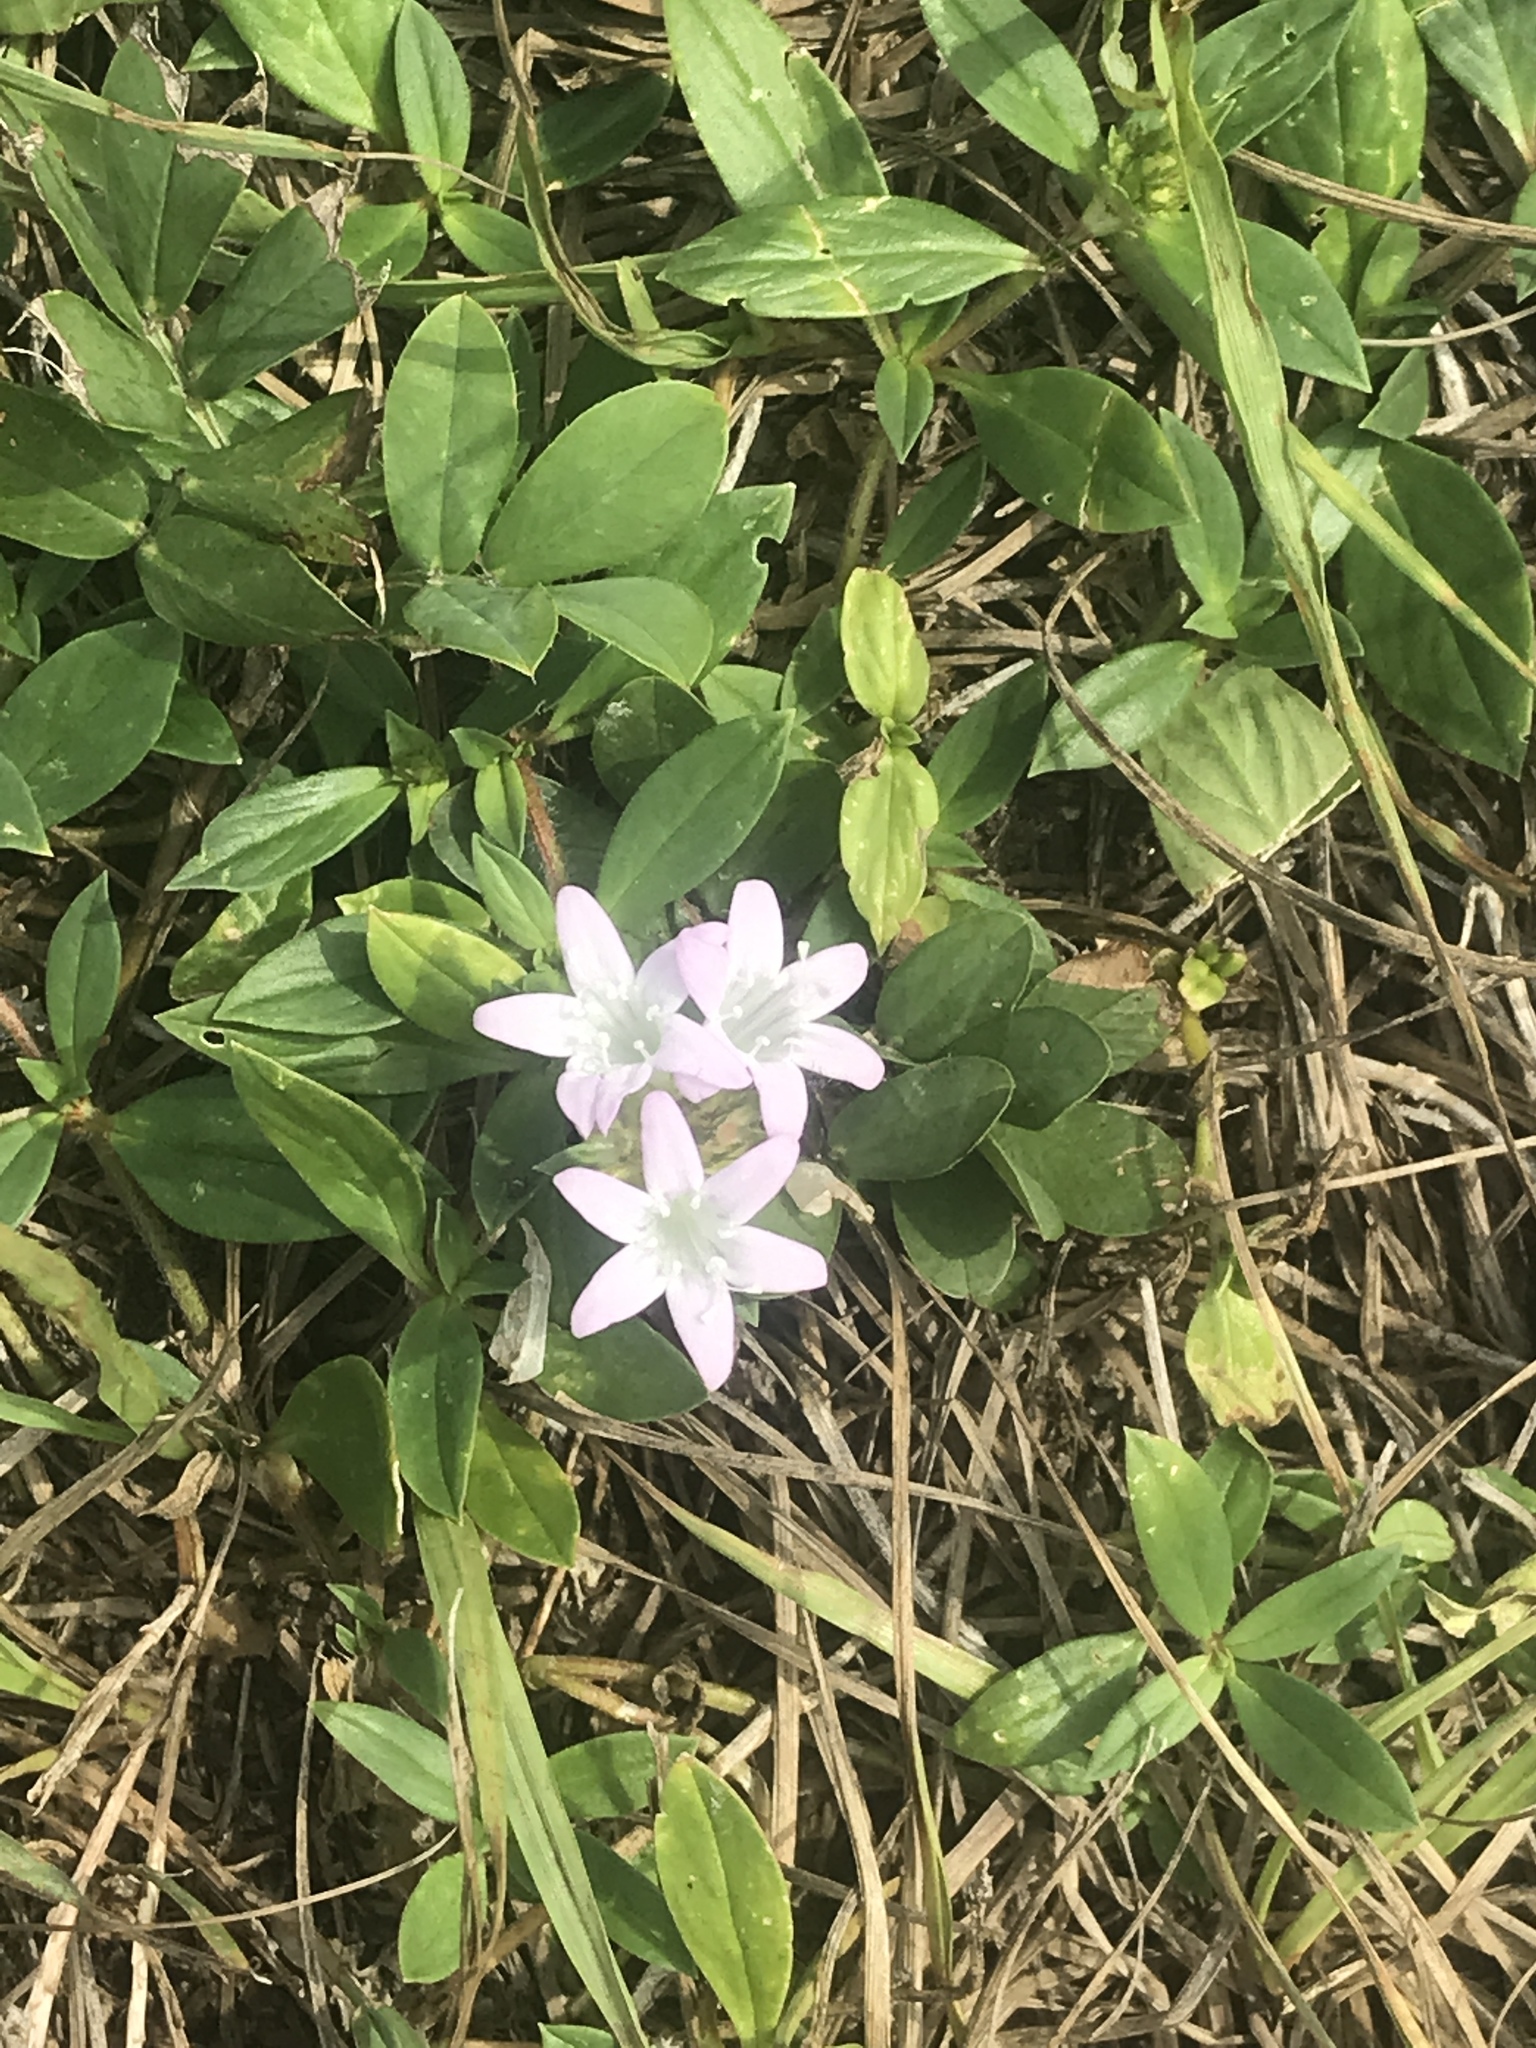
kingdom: Plantae
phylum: Tracheophyta
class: Magnoliopsida
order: Gentianales
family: Rubiaceae
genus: Richardia
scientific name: Richardia grandiflora
